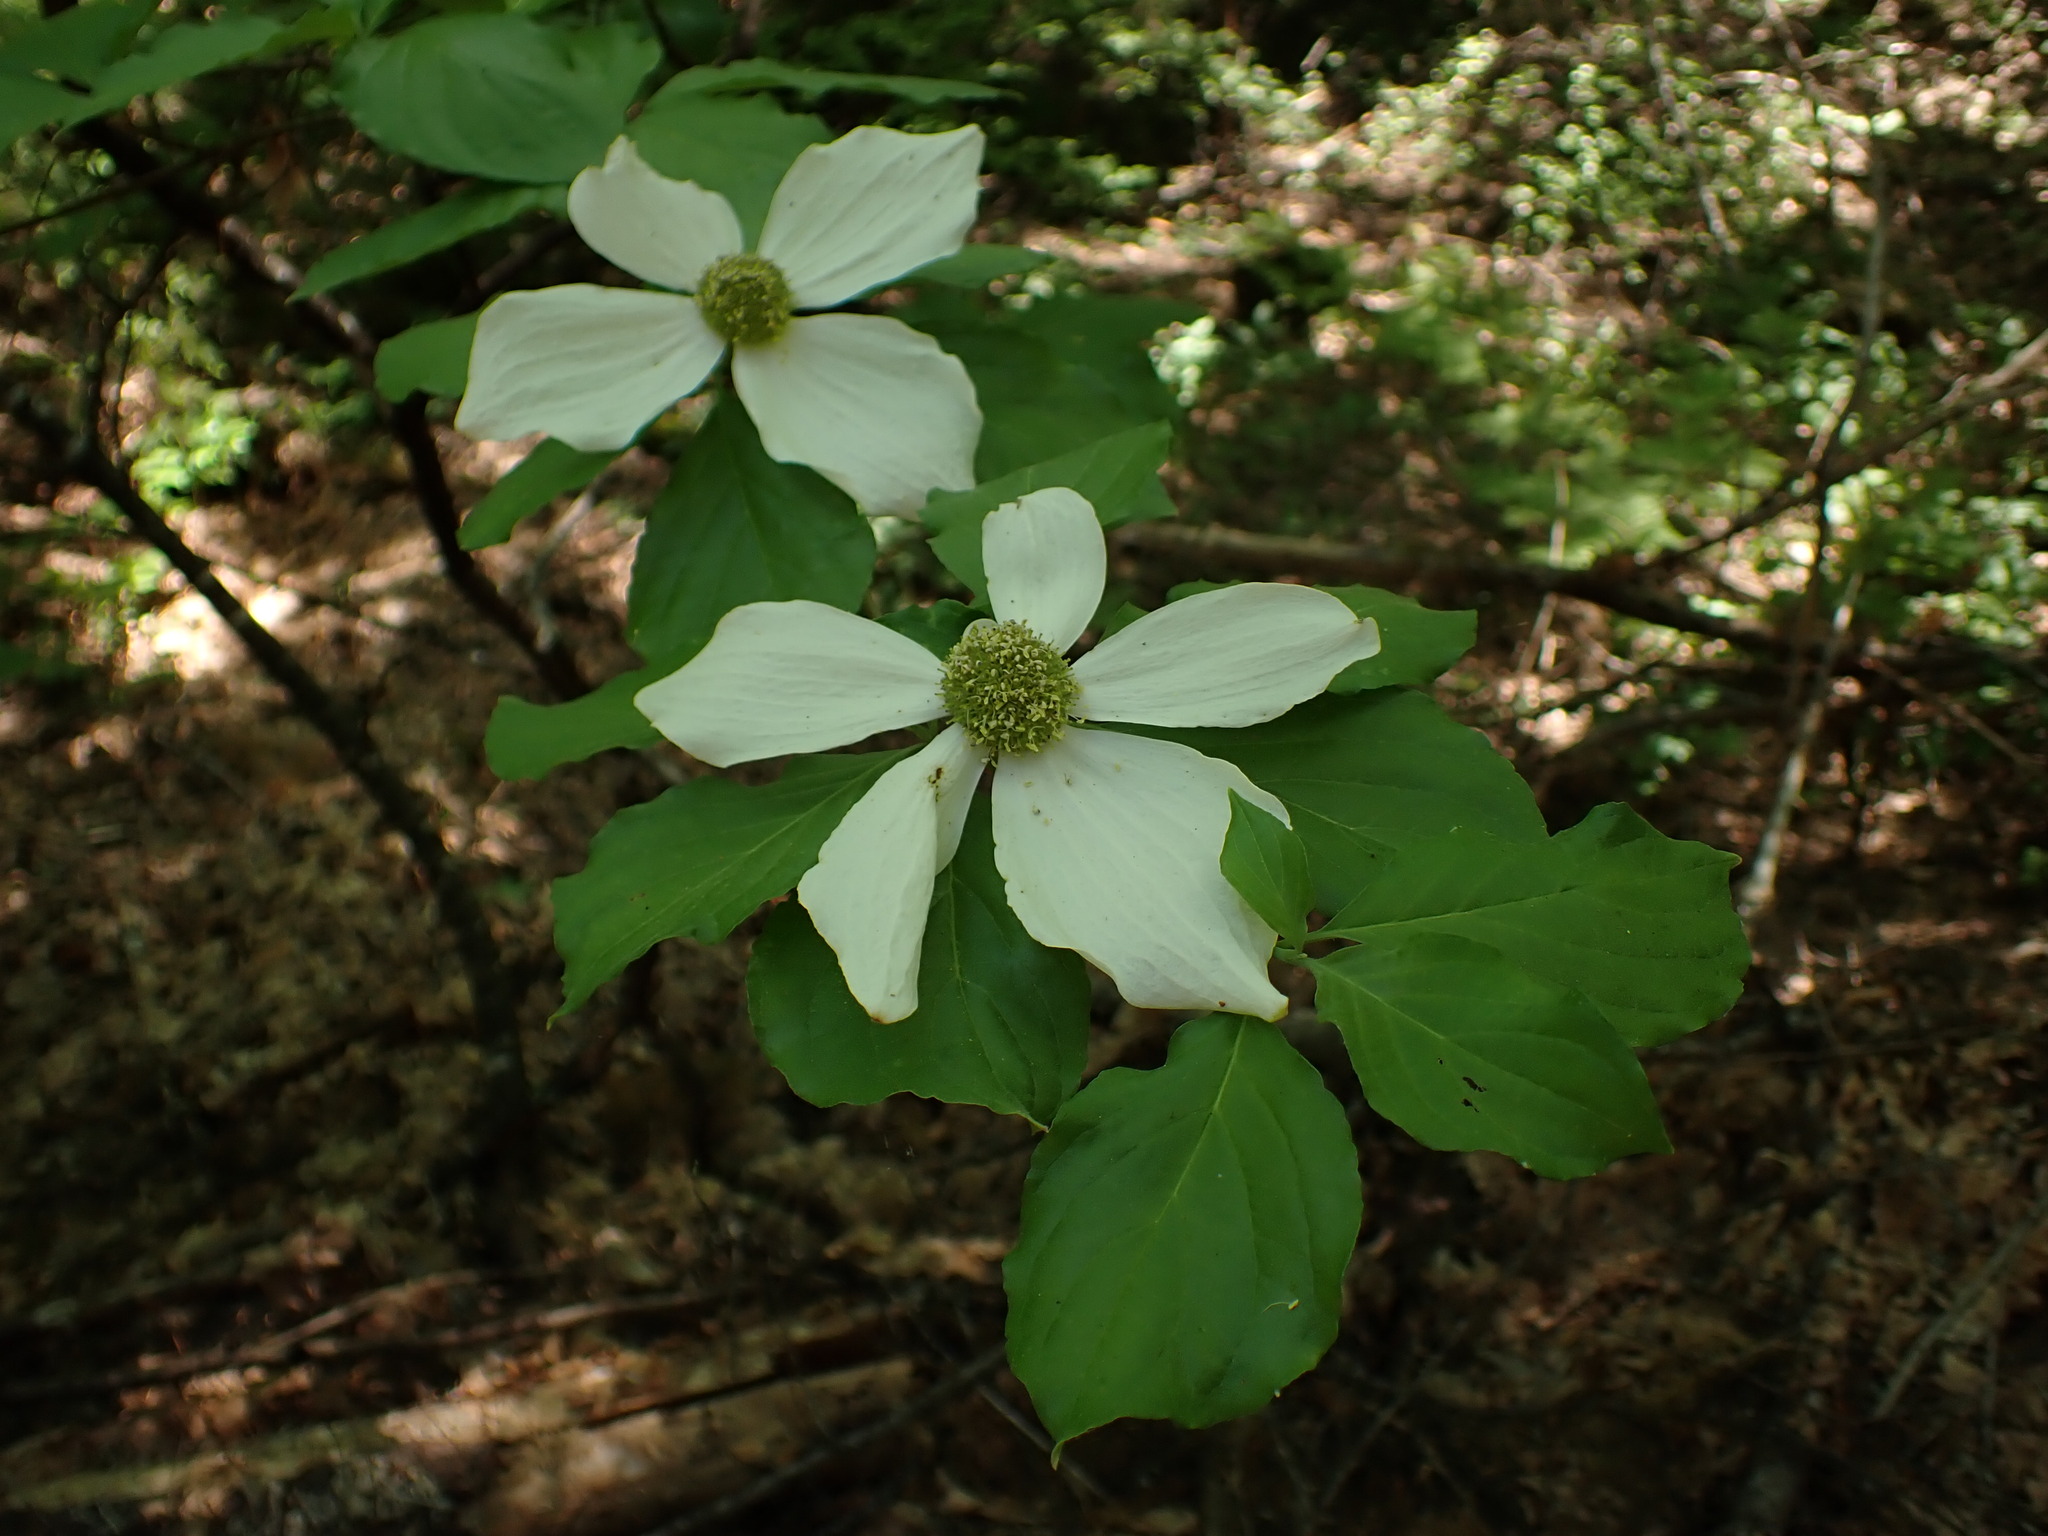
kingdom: Plantae
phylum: Tracheophyta
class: Magnoliopsida
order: Cornales
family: Cornaceae
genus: Cornus
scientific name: Cornus nuttallii
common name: Pacific dogwood
